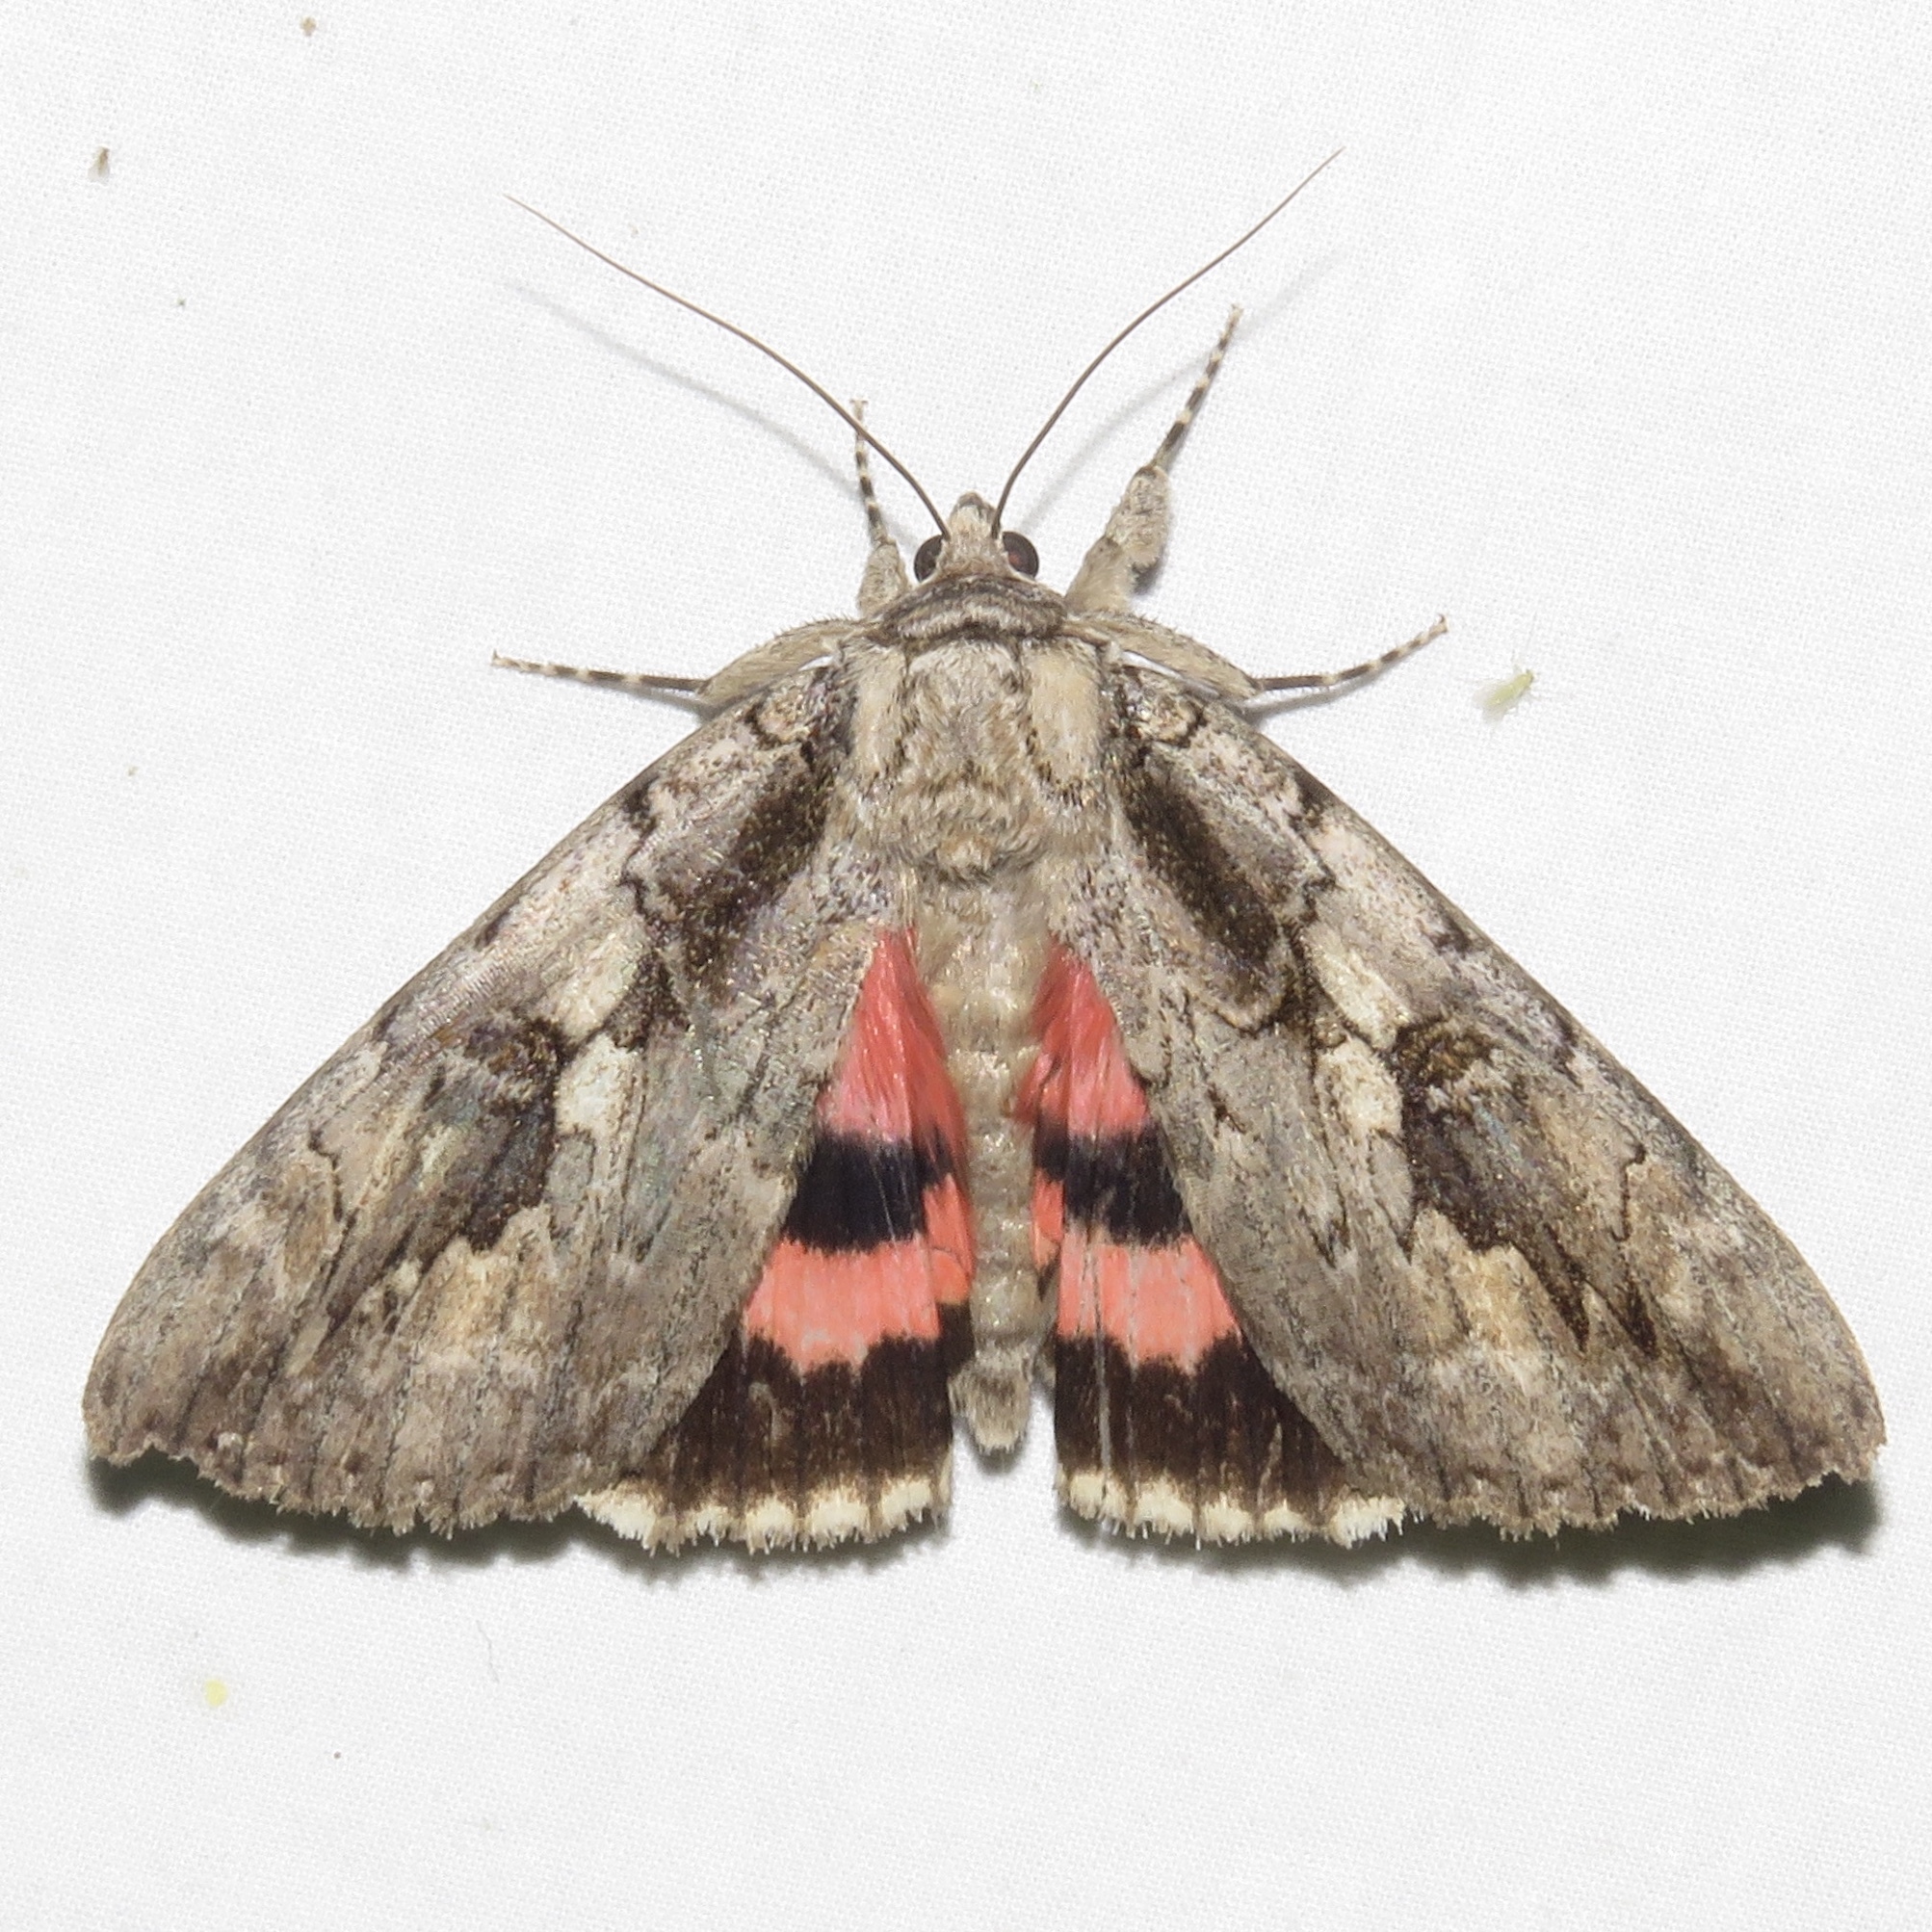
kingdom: Animalia
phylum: Arthropoda
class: Insecta
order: Lepidoptera
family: Erebidae
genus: Catocala
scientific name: Catocala amatrix
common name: Sweetheart underwing
